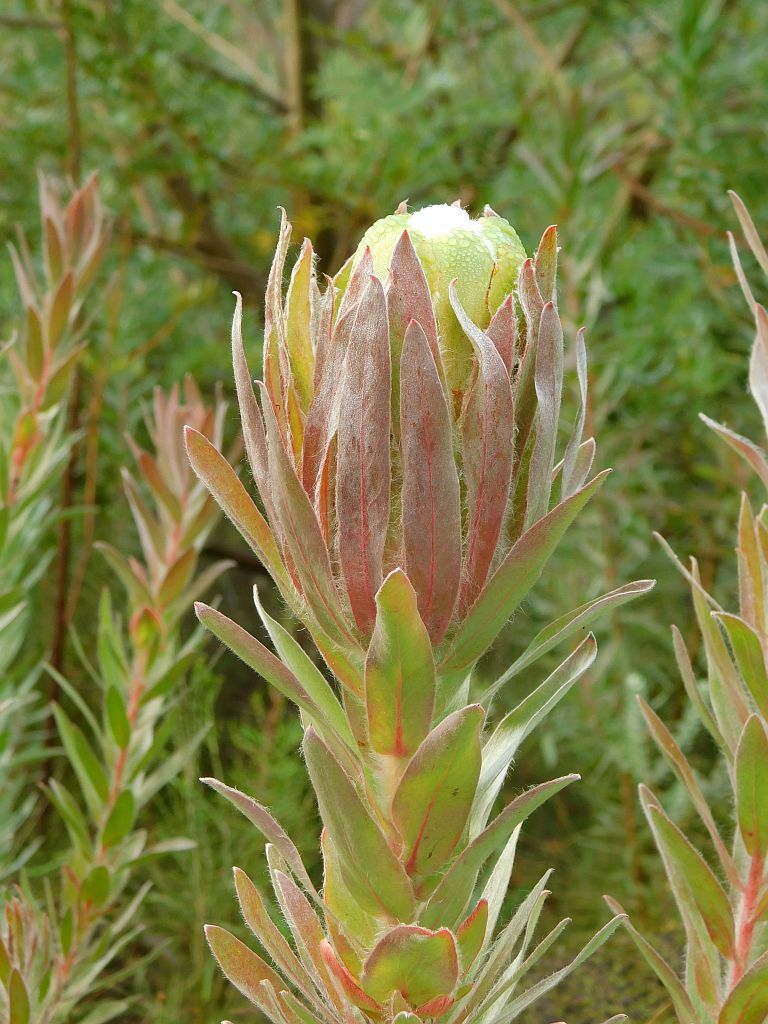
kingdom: Plantae
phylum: Tracheophyta
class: Magnoliopsida
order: Proteales
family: Proteaceae
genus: Protea
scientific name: Protea coronata
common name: Green sugarbush
